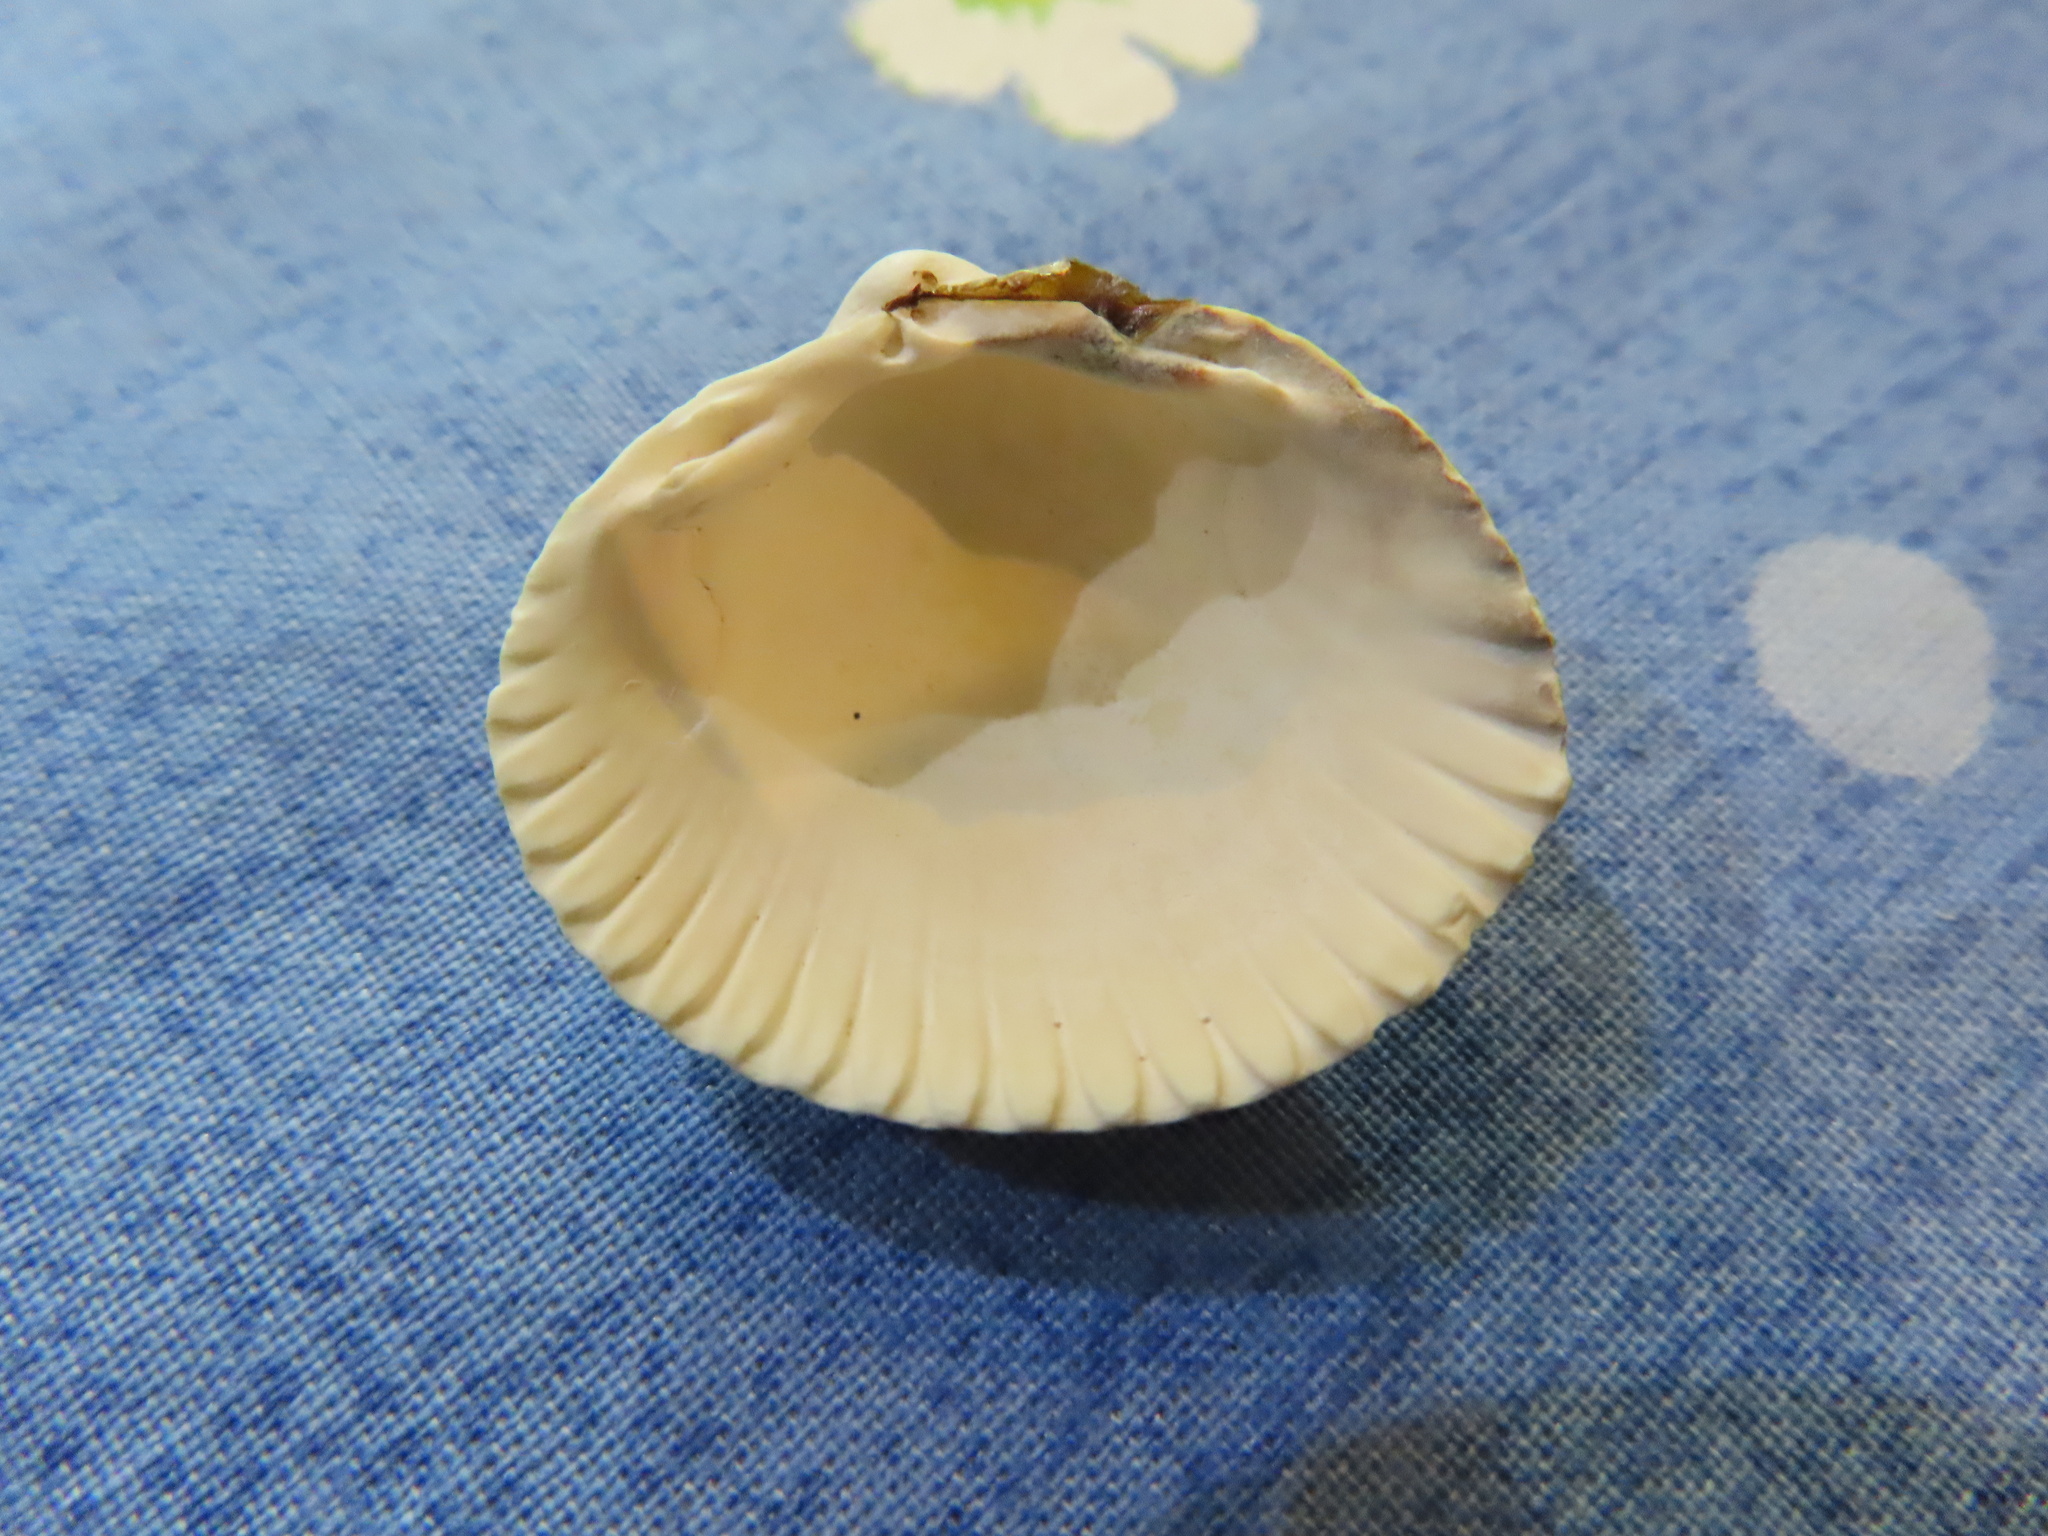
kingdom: Animalia
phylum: Mollusca
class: Bivalvia
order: Cardiida
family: Cardiidae
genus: Cerastoderma
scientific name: Cerastoderma edule
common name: Common cockle
